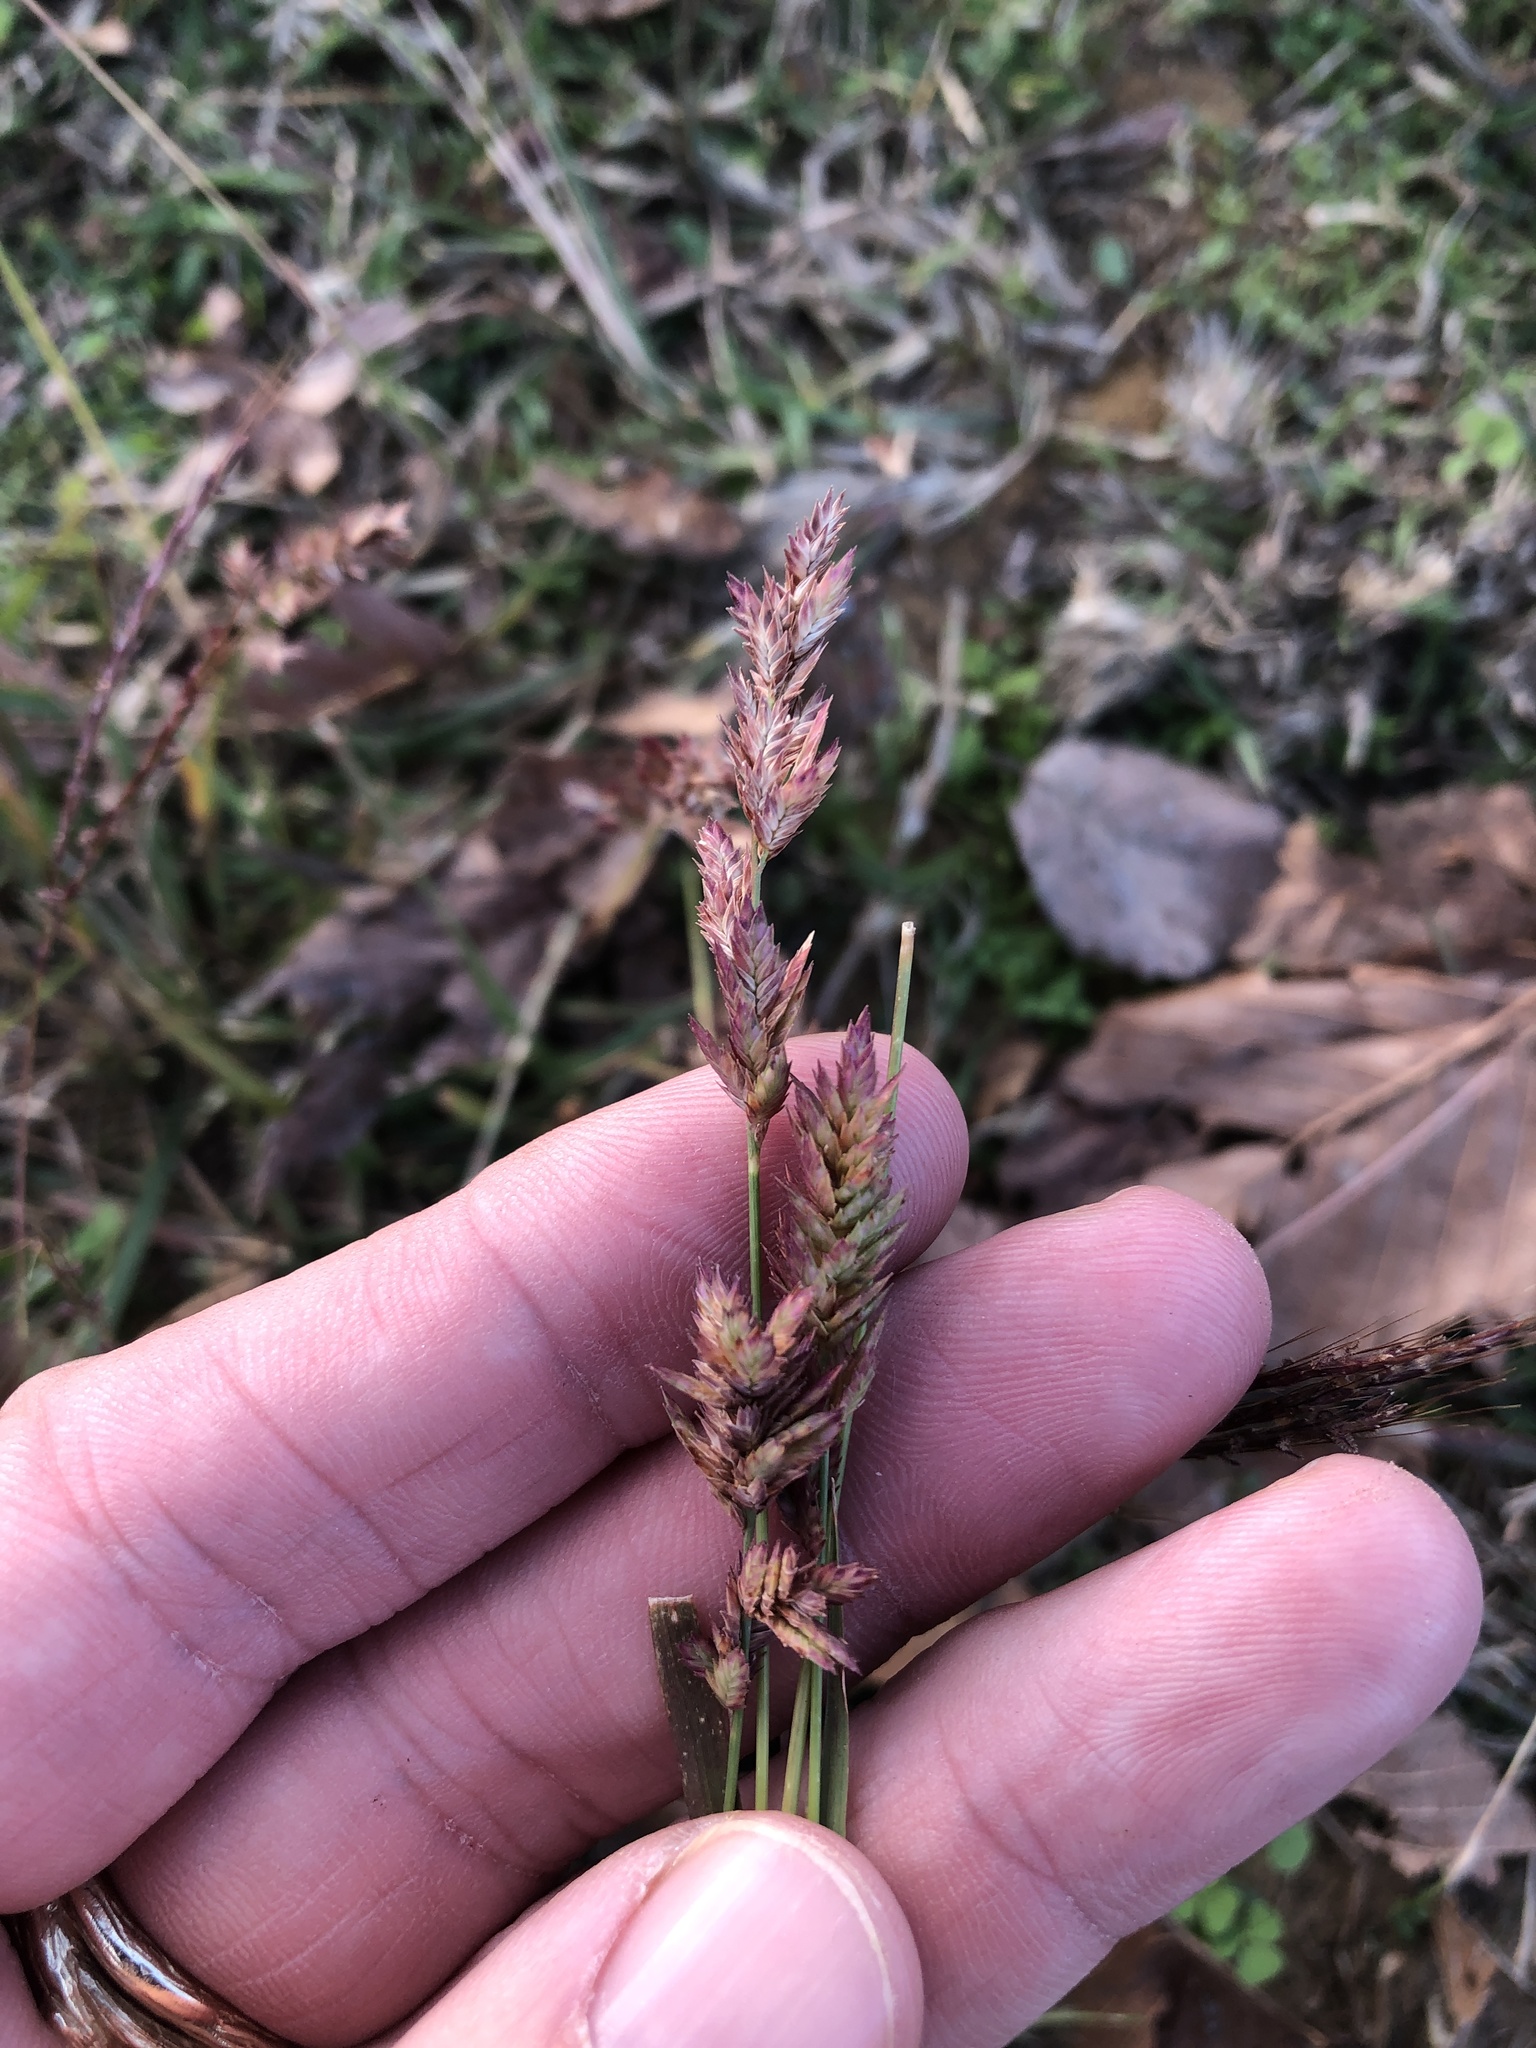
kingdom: Plantae
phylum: Tracheophyta
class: Liliopsida
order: Poales
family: Poaceae
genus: Eragrostis
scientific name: Eragrostis secundiflora
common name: Red love grass
